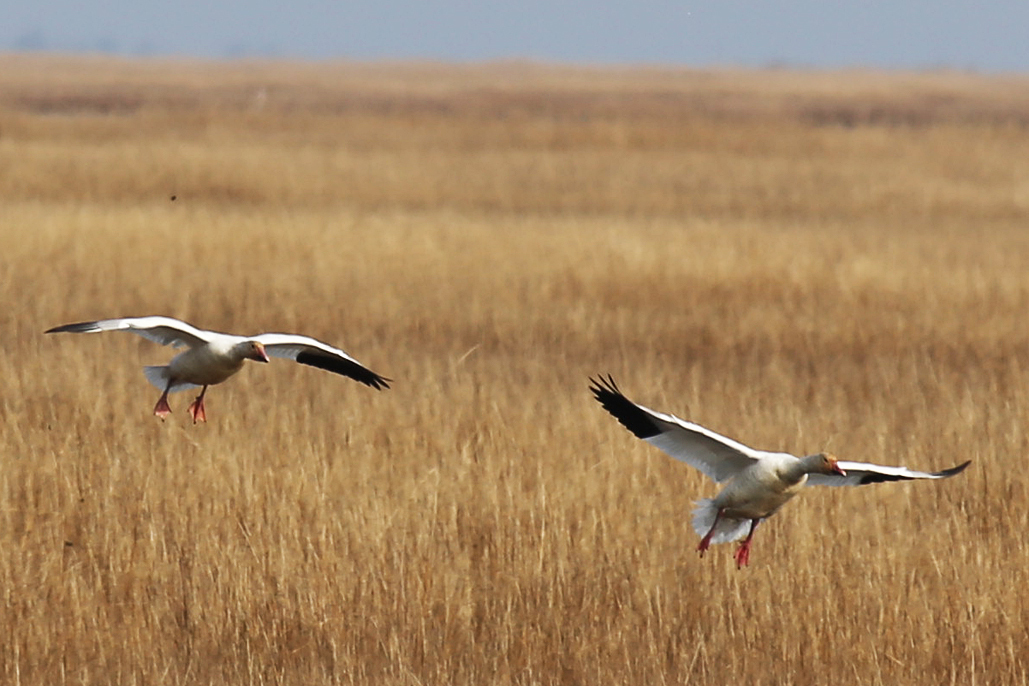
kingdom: Animalia
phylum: Chordata
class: Aves
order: Anseriformes
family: Anatidae
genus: Anser
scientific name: Anser caerulescens
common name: Snow goose
